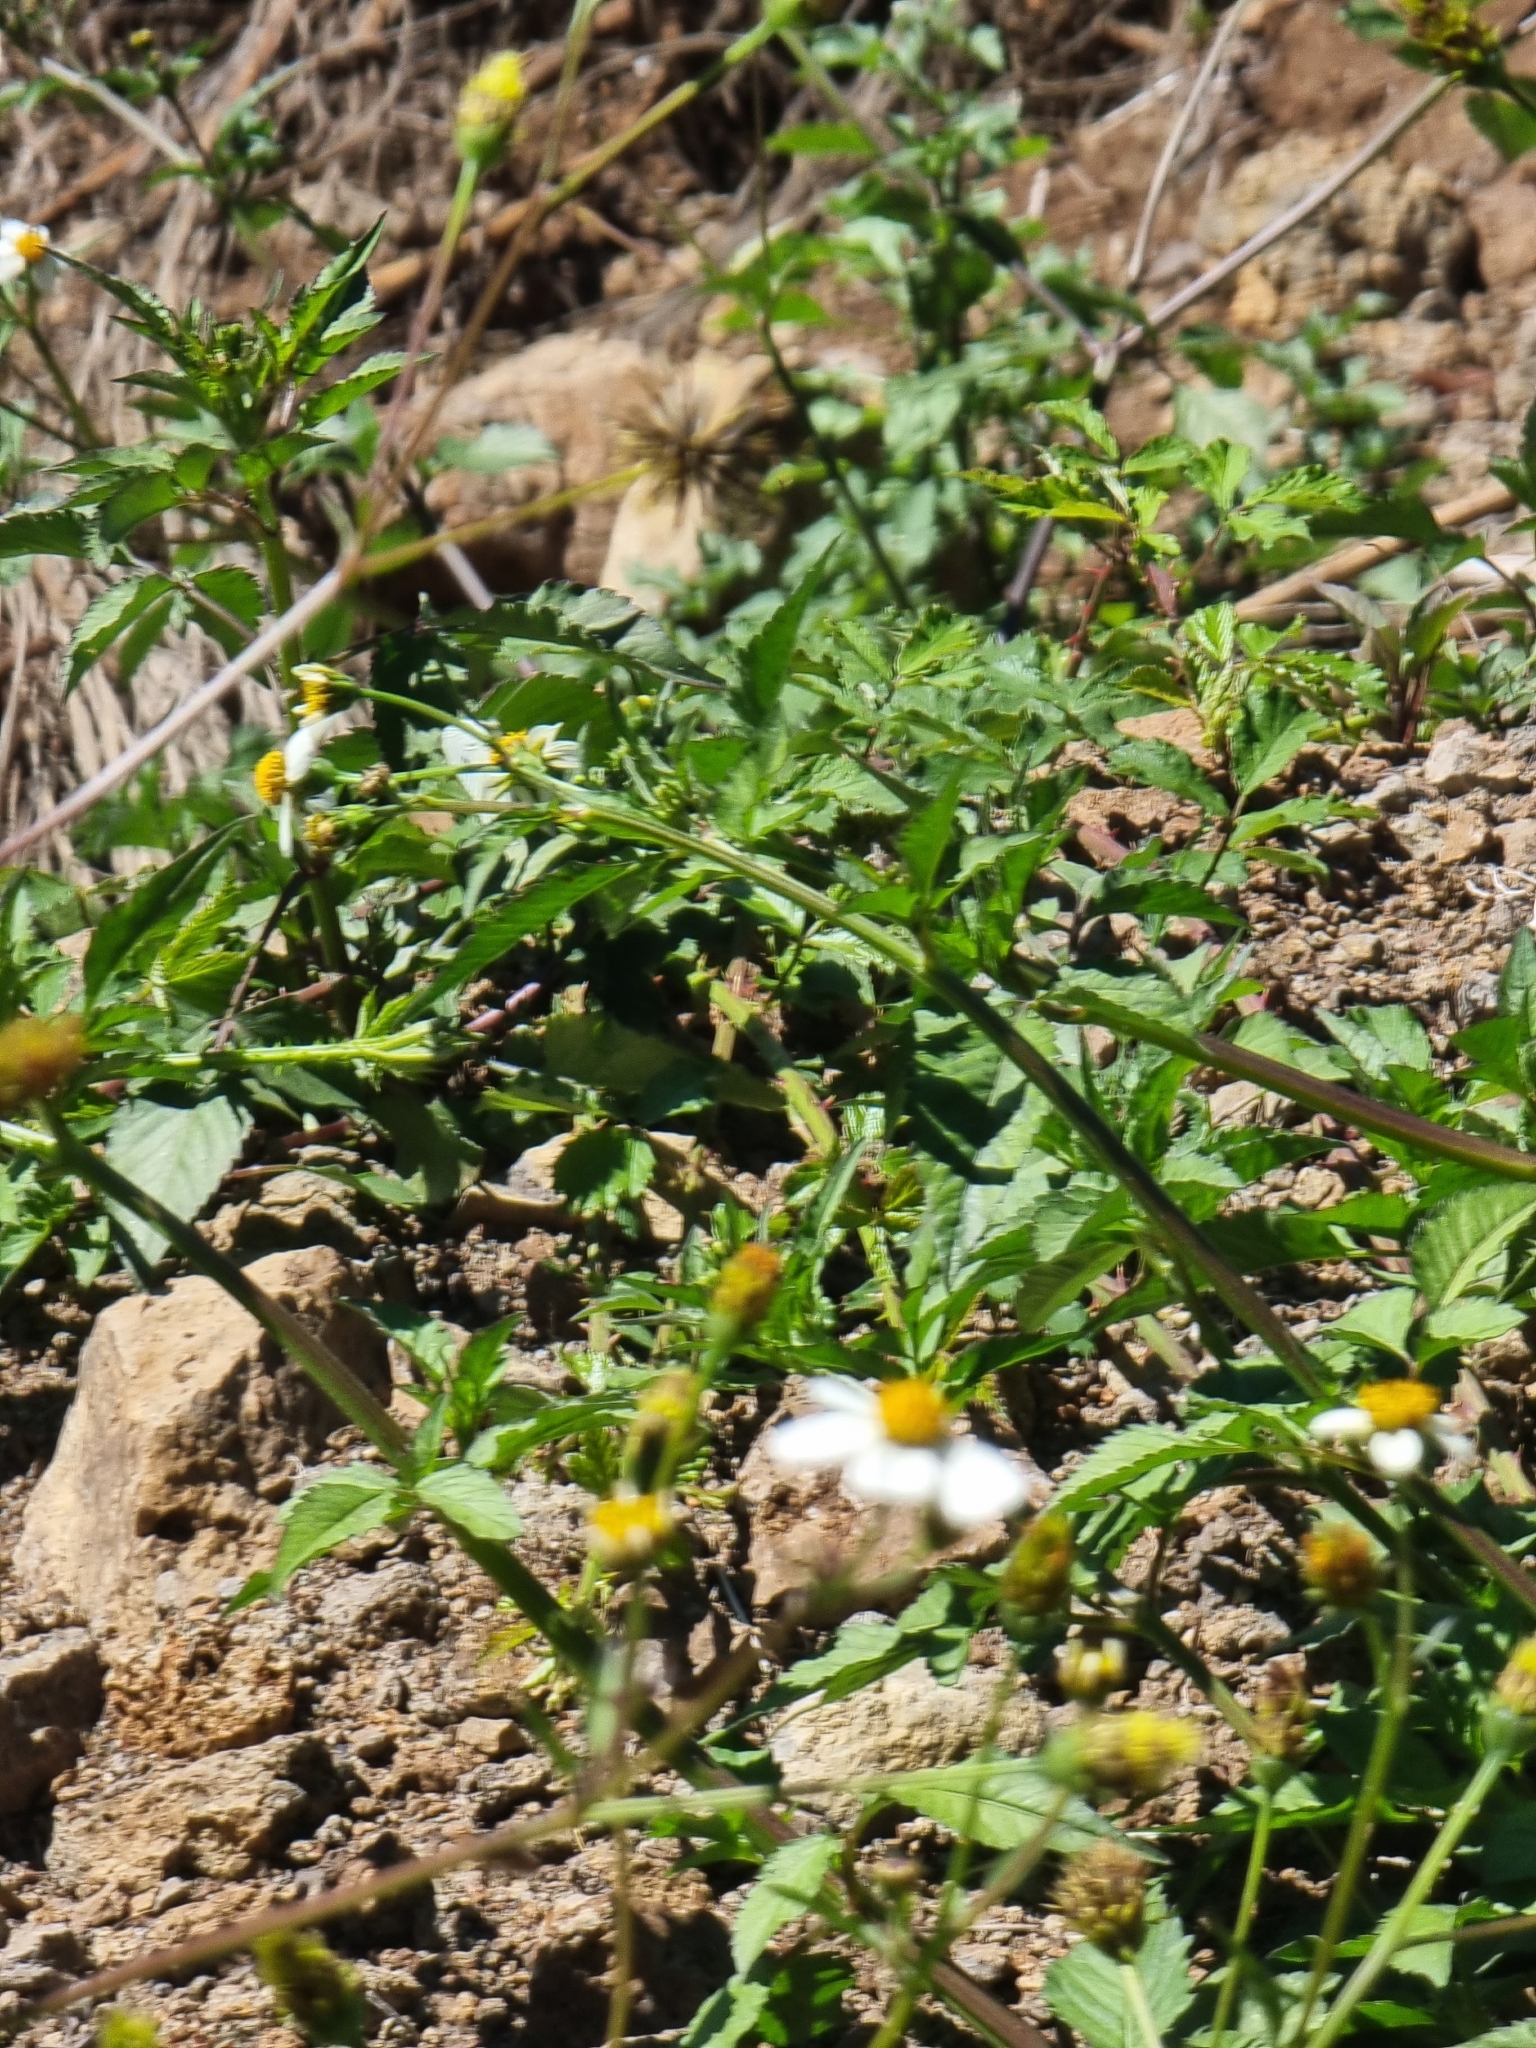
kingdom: Plantae
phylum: Tracheophyta
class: Magnoliopsida
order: Asterales
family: Asteraceae
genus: Bidens
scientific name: Bidens pilosa
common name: Black-jack
